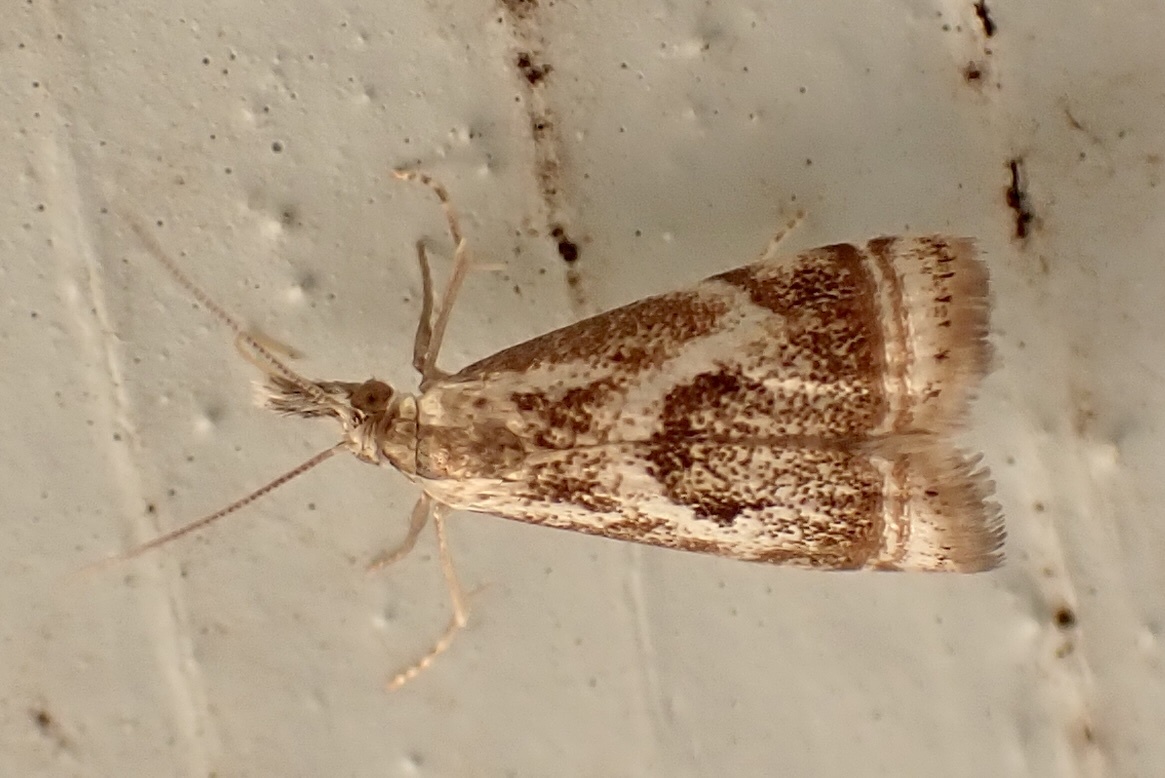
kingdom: Animalia
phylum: Arthropoda
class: Insecta
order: Lepidoptera
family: Crambidae
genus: Microcrambus
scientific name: Microcrambus elegans
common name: Elegant grass-veneer
